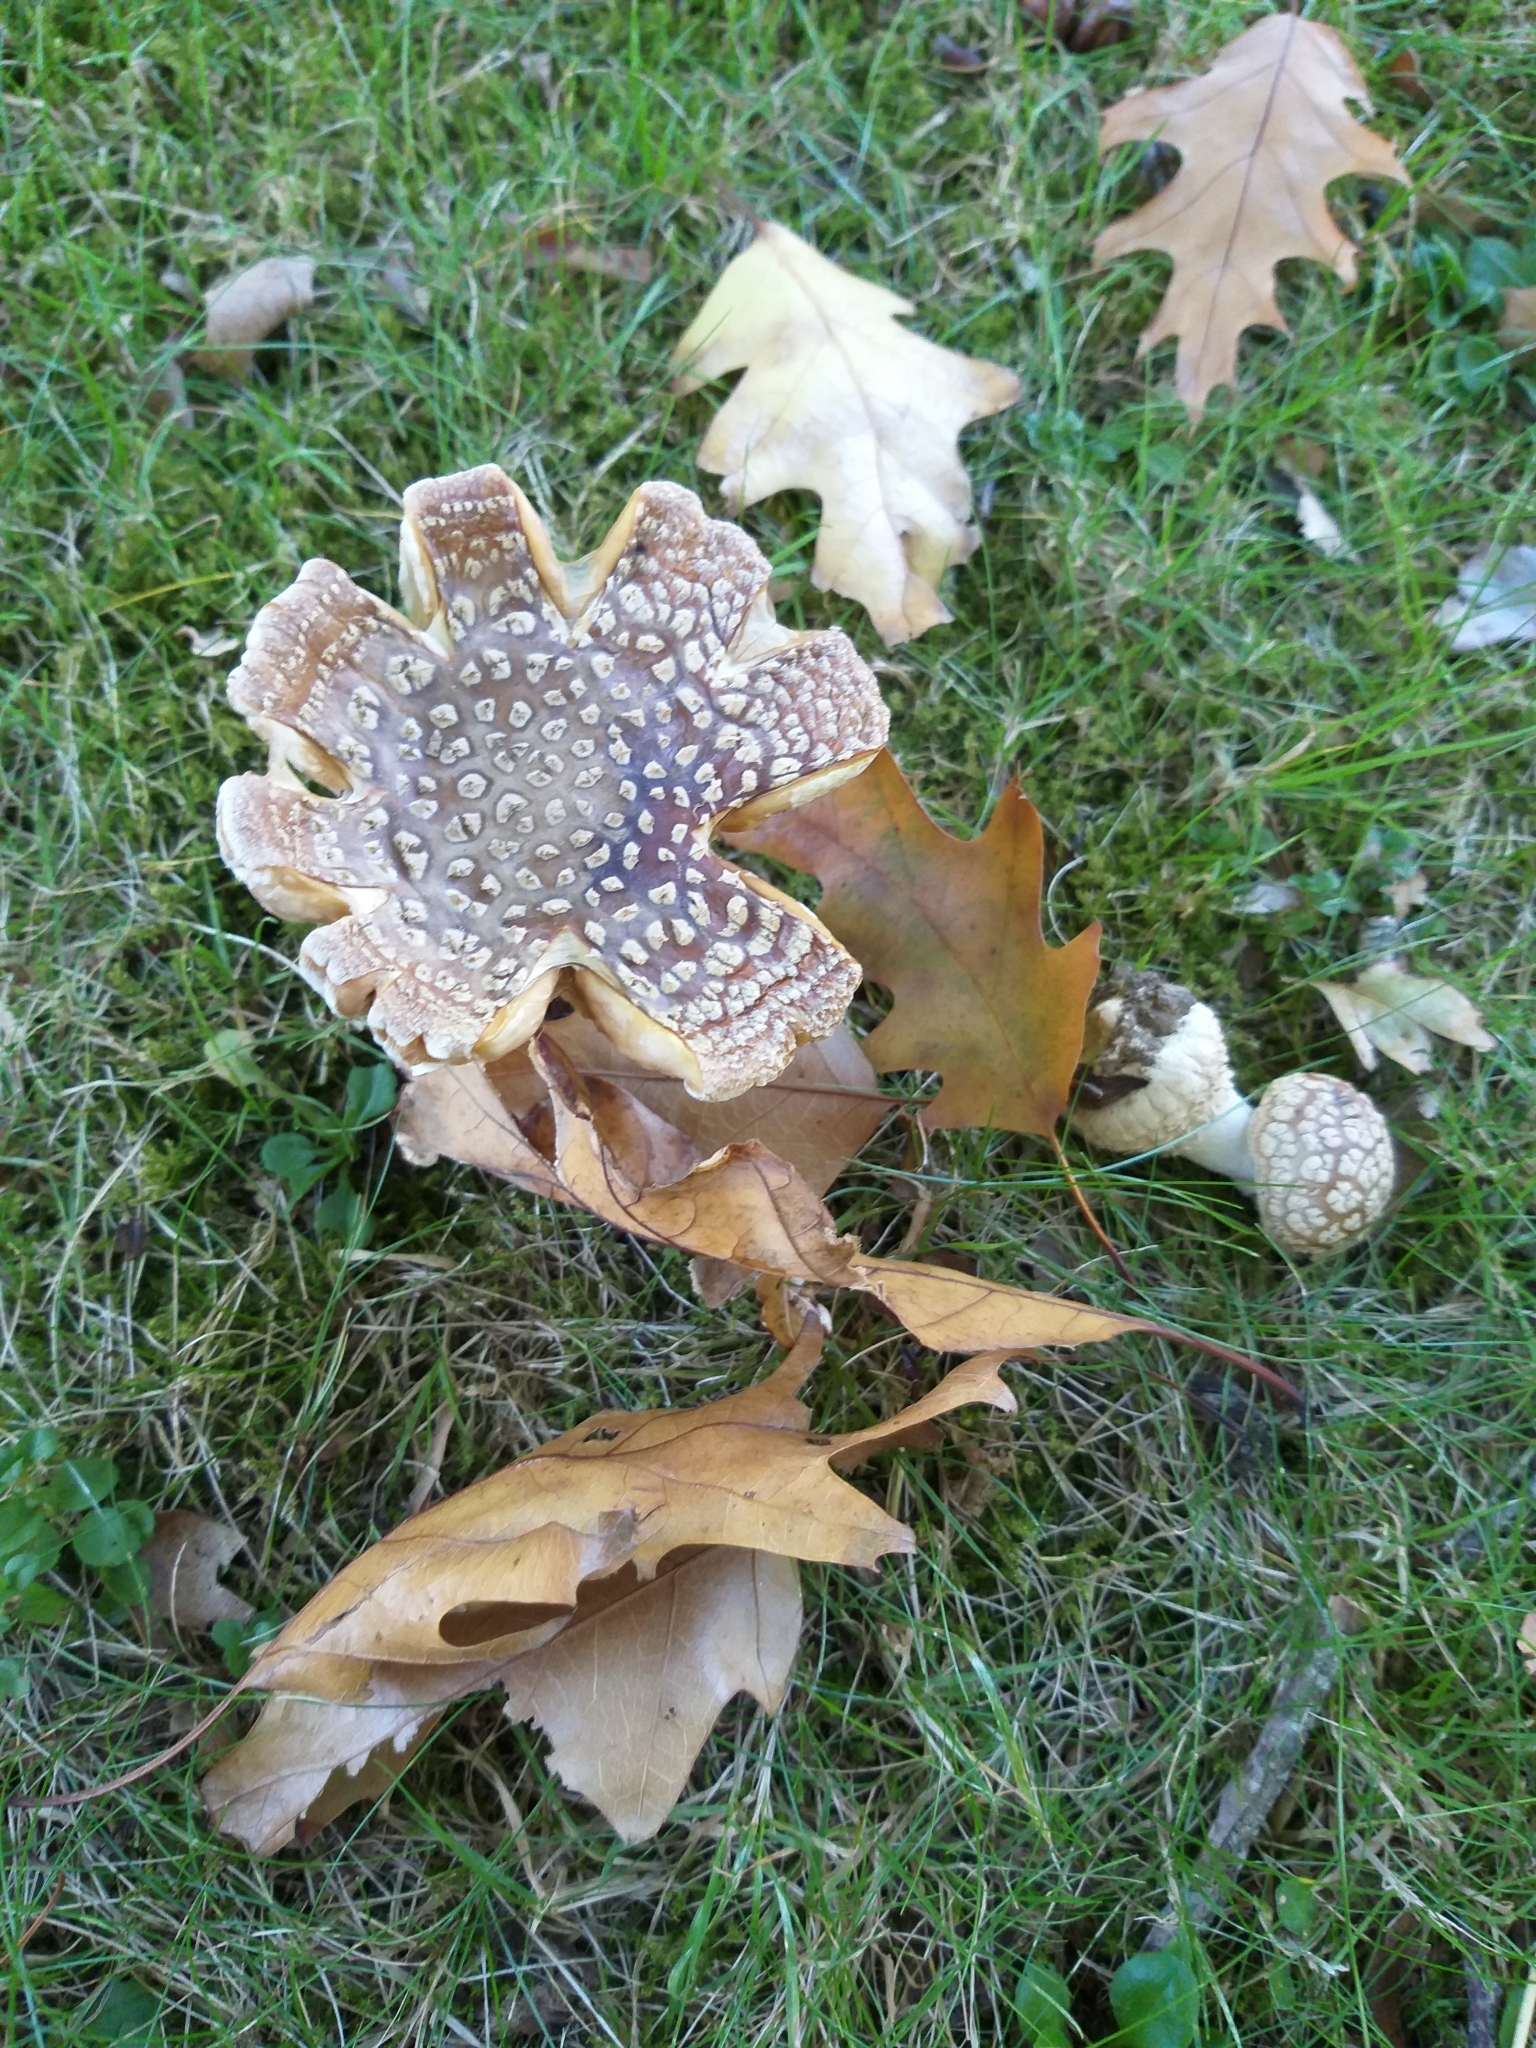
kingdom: Fungi
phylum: Basidiomycota
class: Agaricomycetes
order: Agaricales
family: Amanitaceae
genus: Amanita
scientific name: Amanita muscaria
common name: Fly agaric
